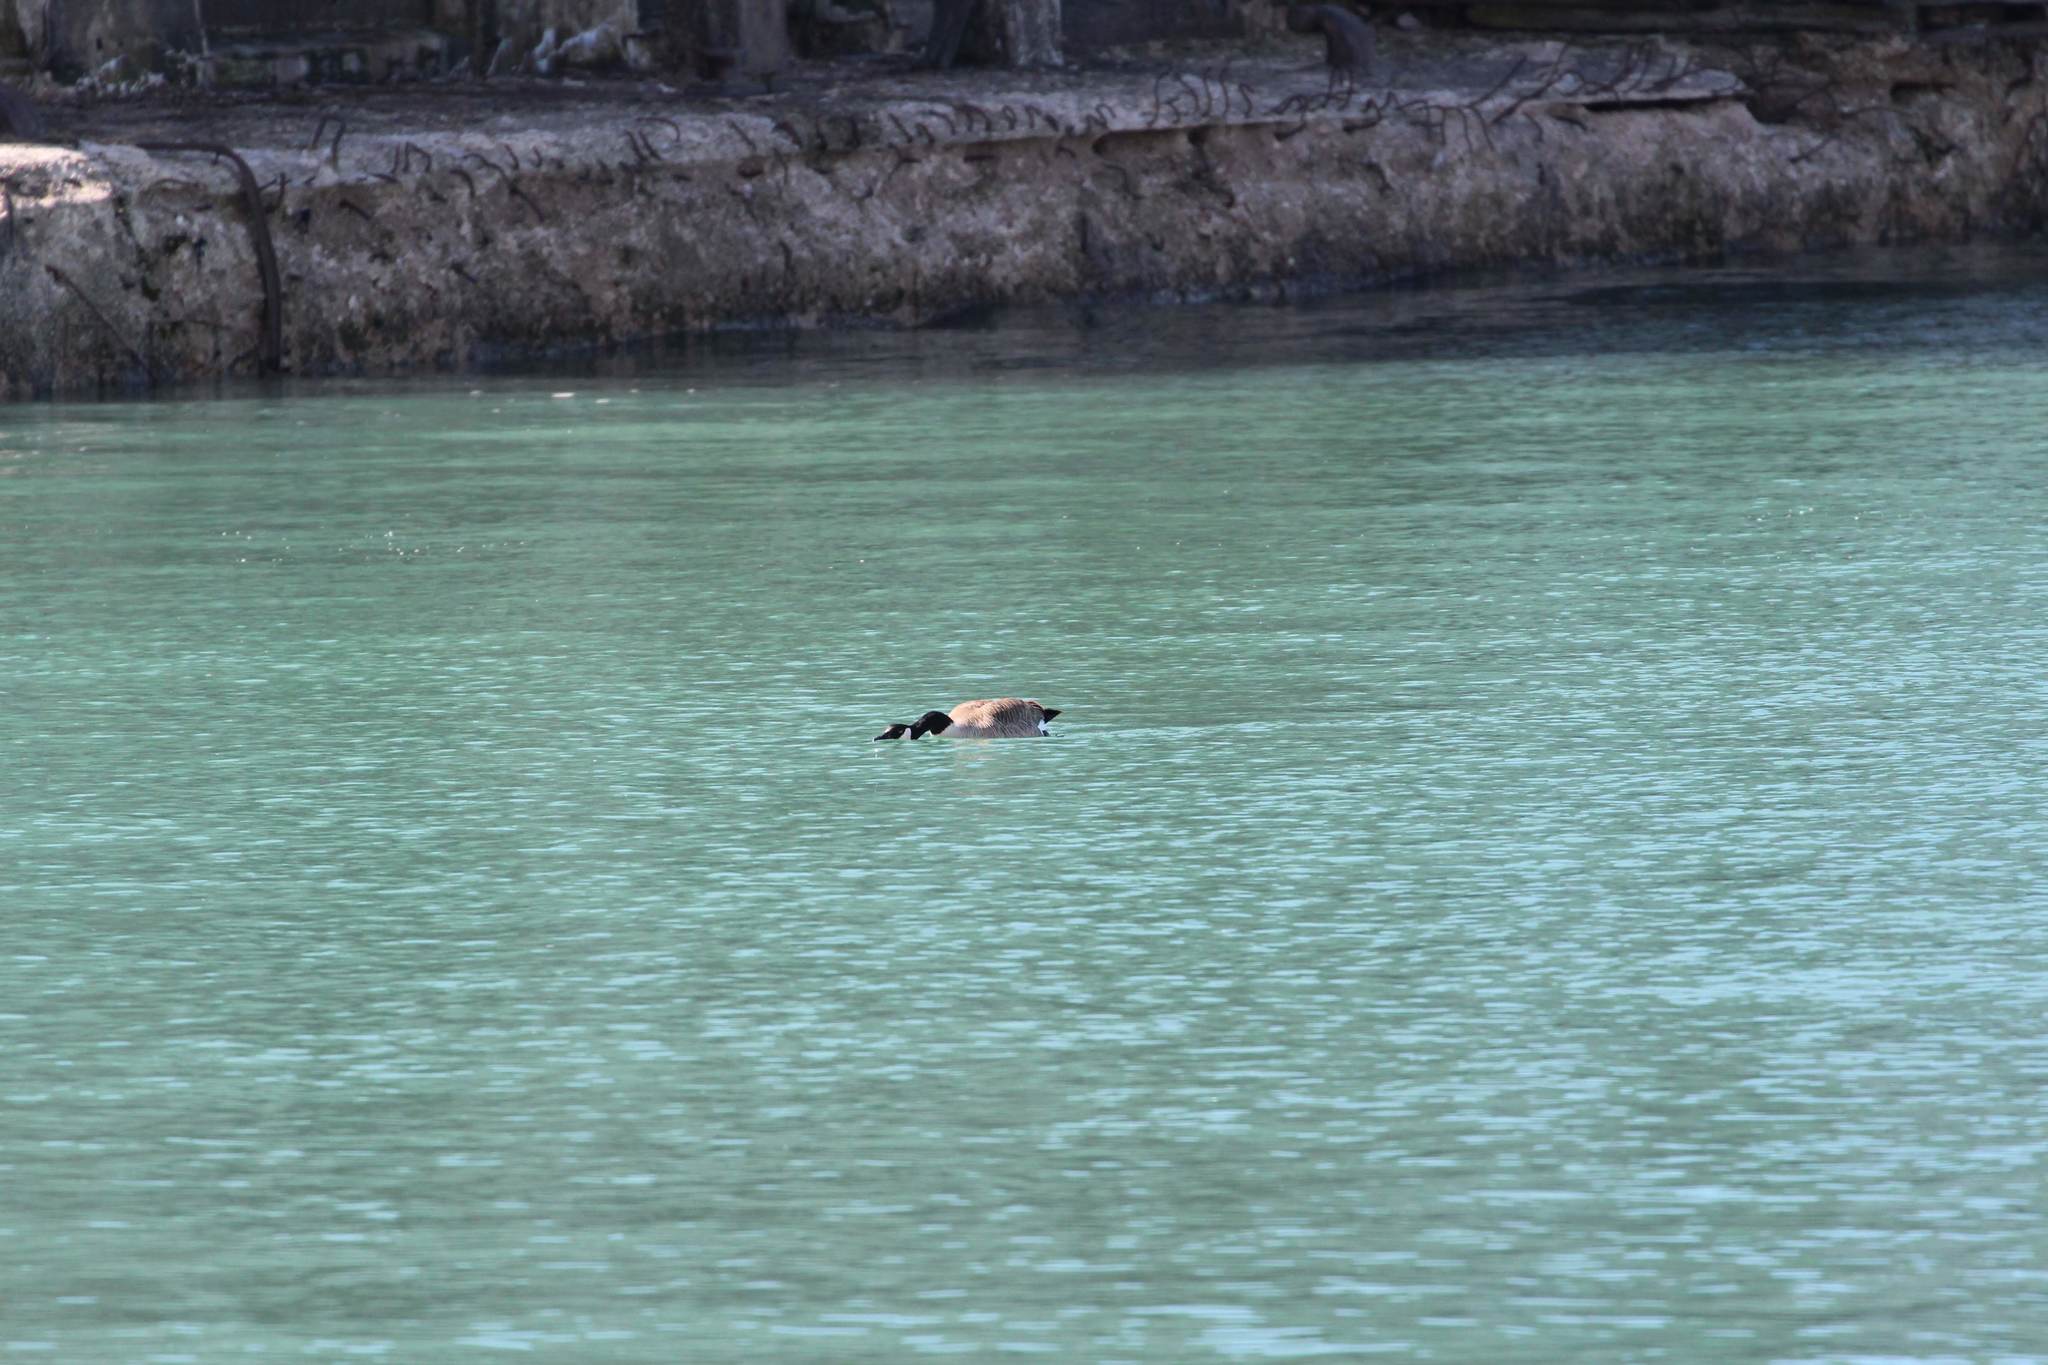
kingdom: Animalia
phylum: Chordata
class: Aves
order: Anseriformes
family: Anatidae
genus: Branta
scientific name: Branta canadensis
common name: Canada goose
